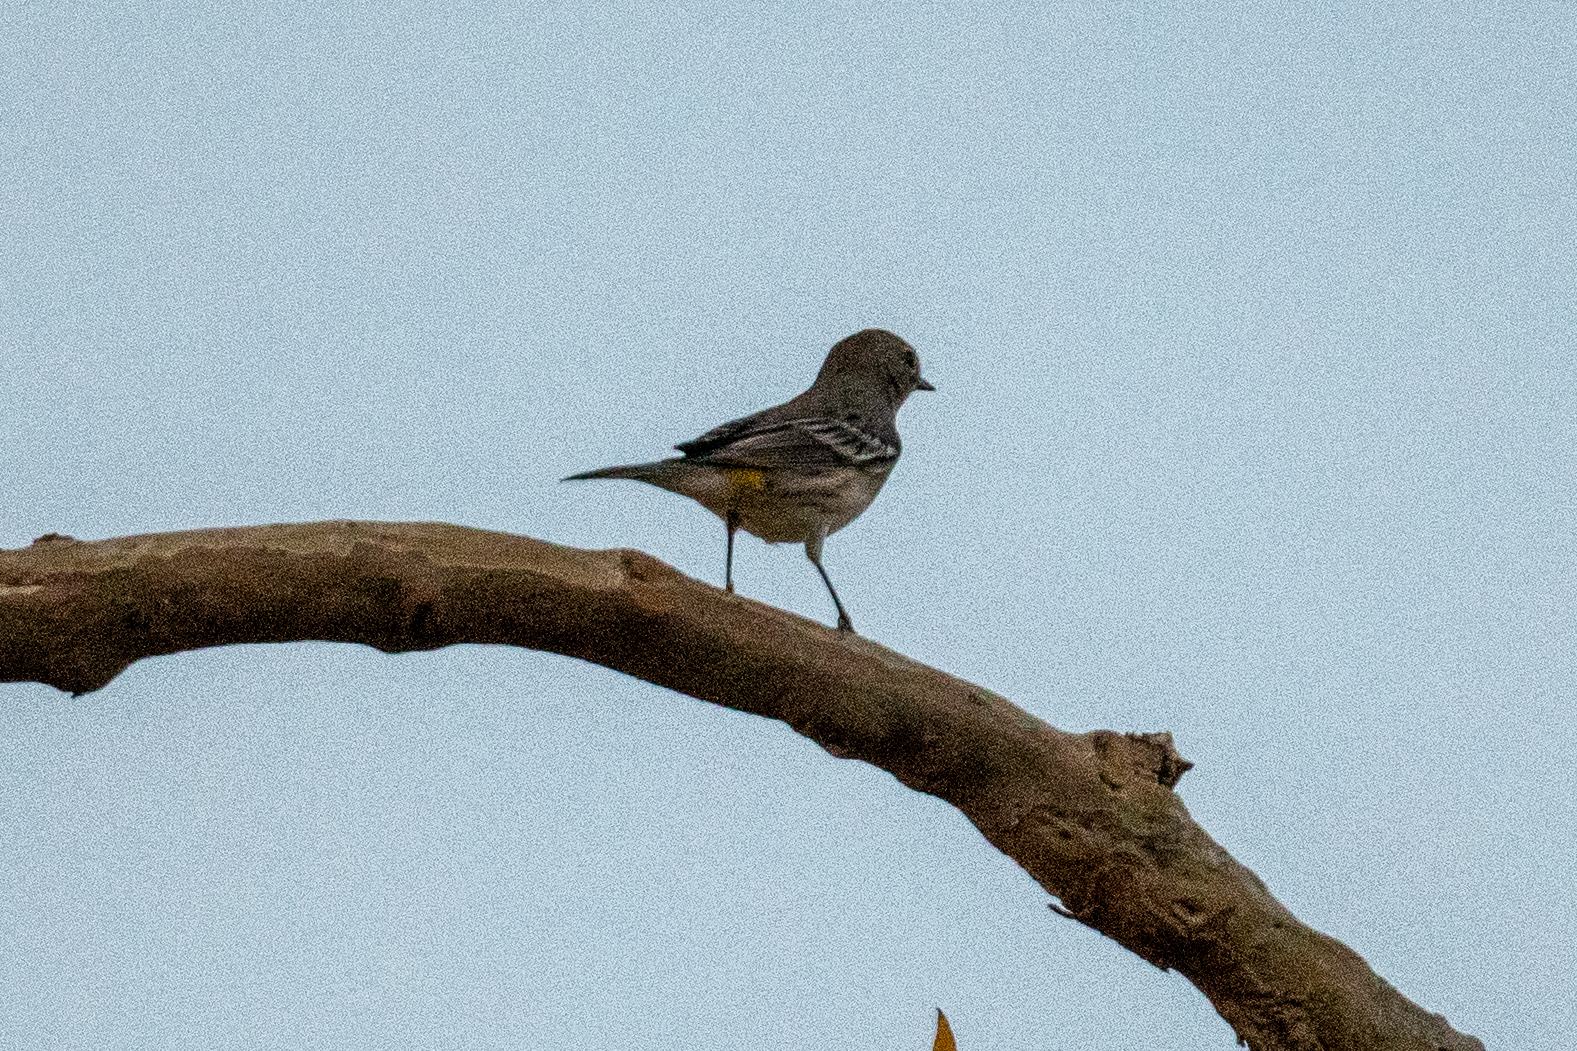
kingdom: Animalia
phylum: Chordata
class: Aves
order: Passeriformes
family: Parulidae
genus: Setophaga
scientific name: Setophaga coronata
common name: Myrtle warbler
